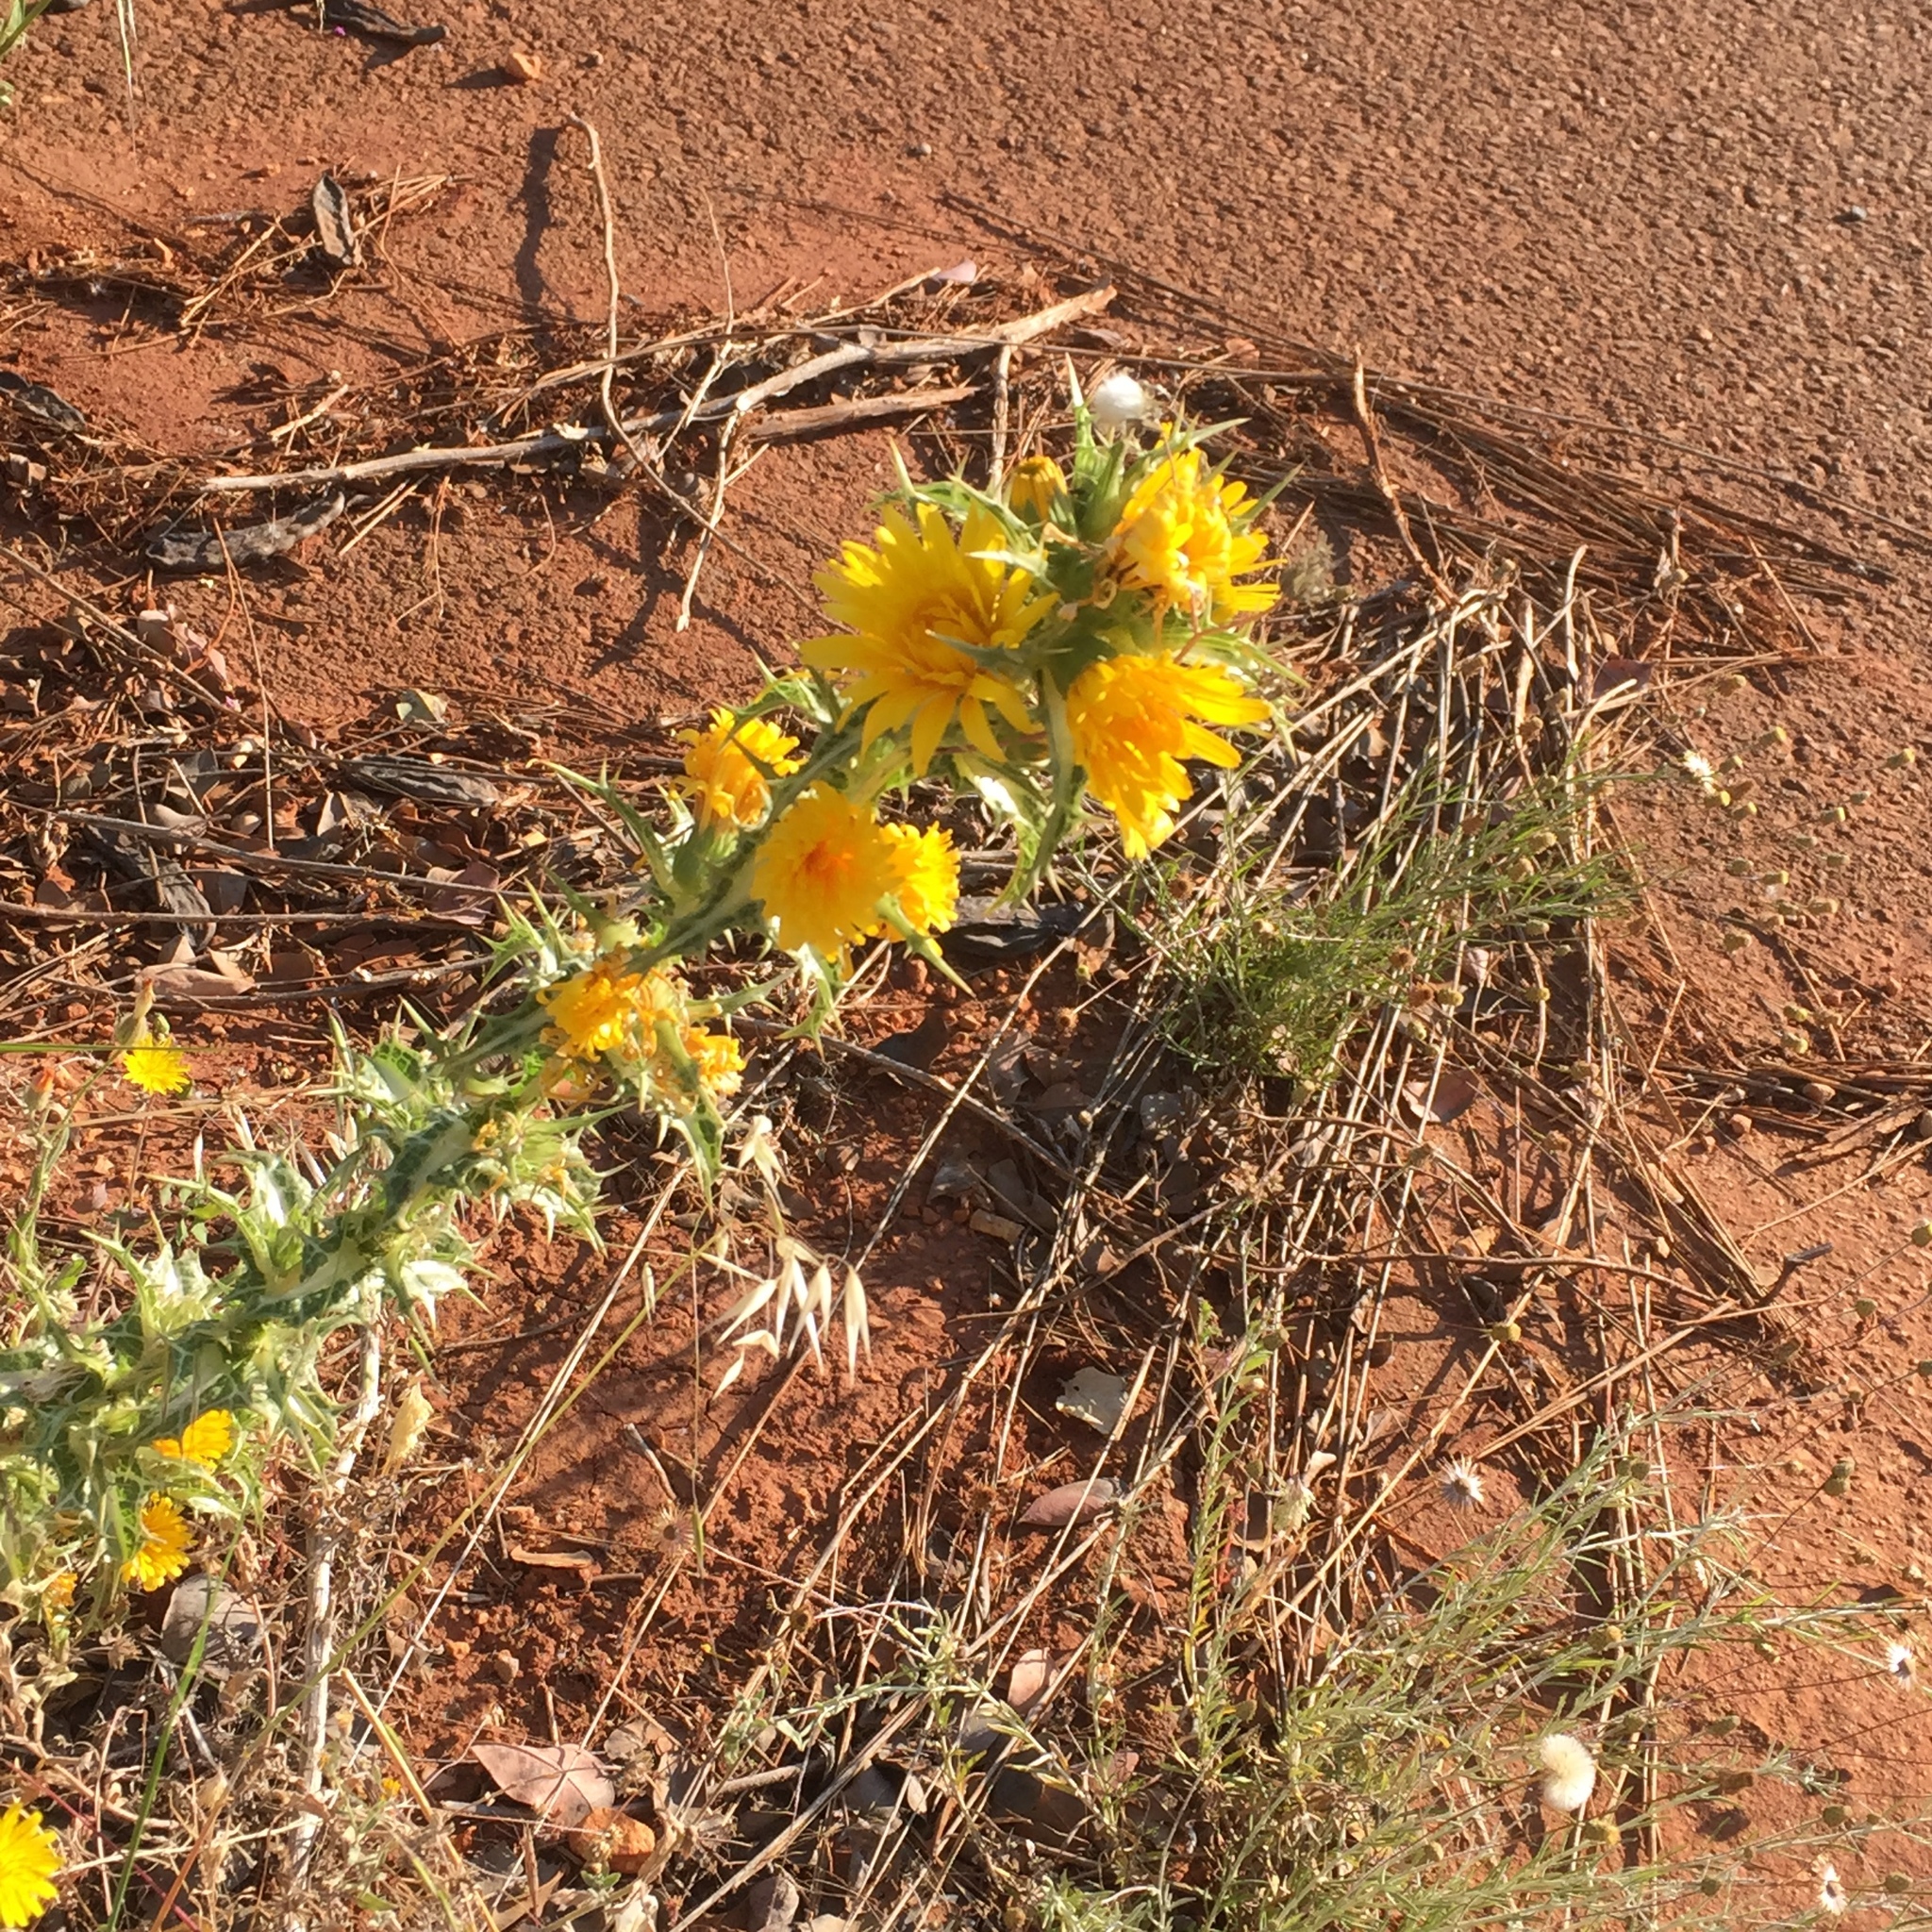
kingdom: Plantae
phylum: Tracheophyta
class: Magnoliopsida
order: Asterales
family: Asteraceae
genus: Scolymus
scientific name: Scolymus hispanicus
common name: Golden thistle
